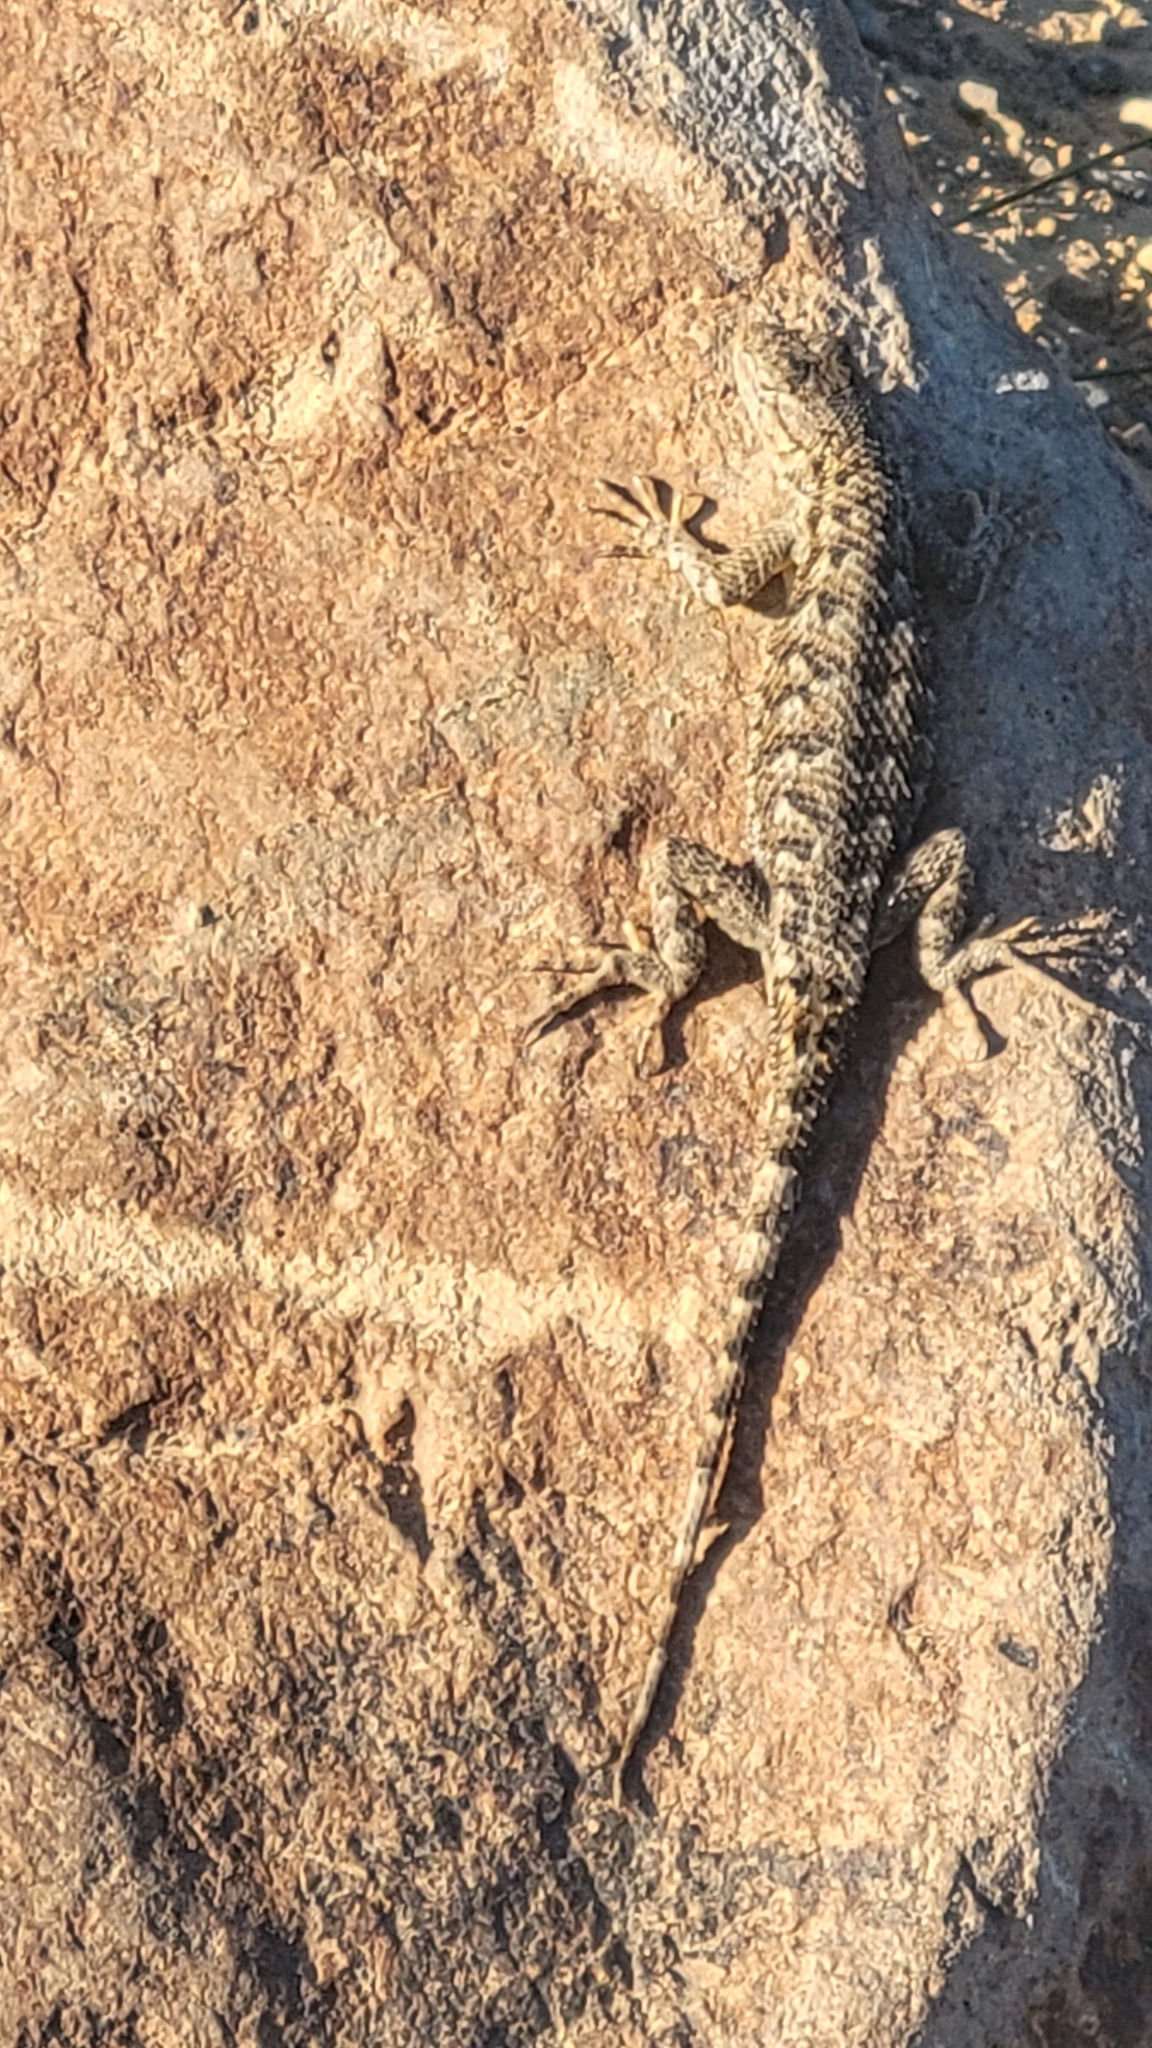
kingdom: Animalia
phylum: Chordata
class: Squamata
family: Phrynosomatidae
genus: Sceloporus
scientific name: Sceloporus occidentalis
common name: Western fence lizard
